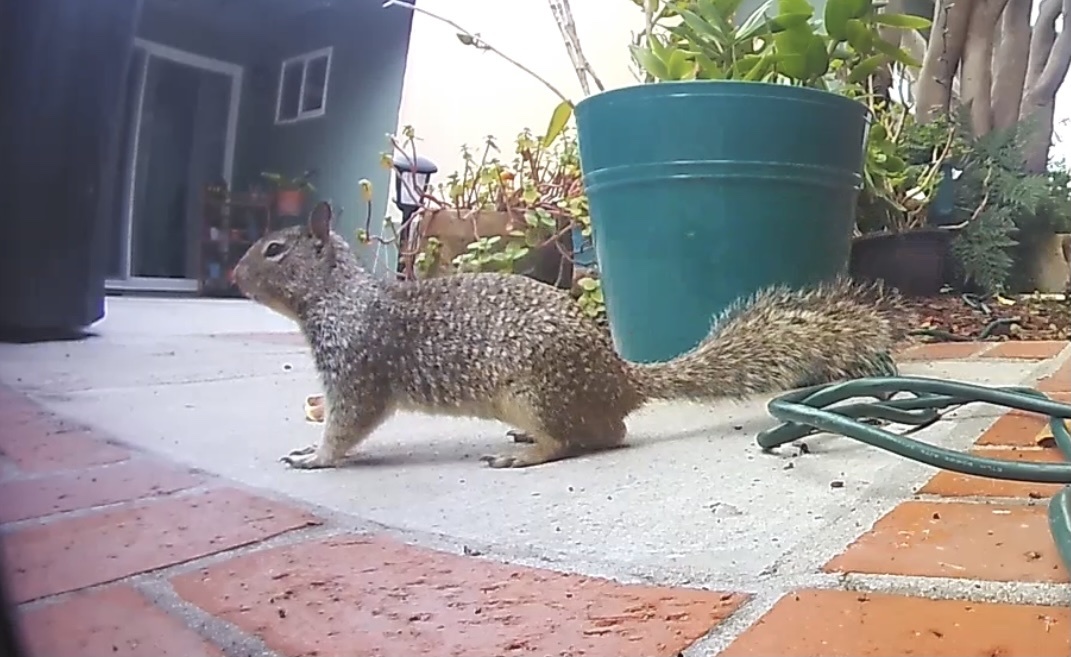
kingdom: Animalia
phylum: Chordata
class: Mammalia
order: Rodentia
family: Sciuridae
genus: Otospermophilus
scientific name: Otospermophilus beecheyi
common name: California ground squirrel
